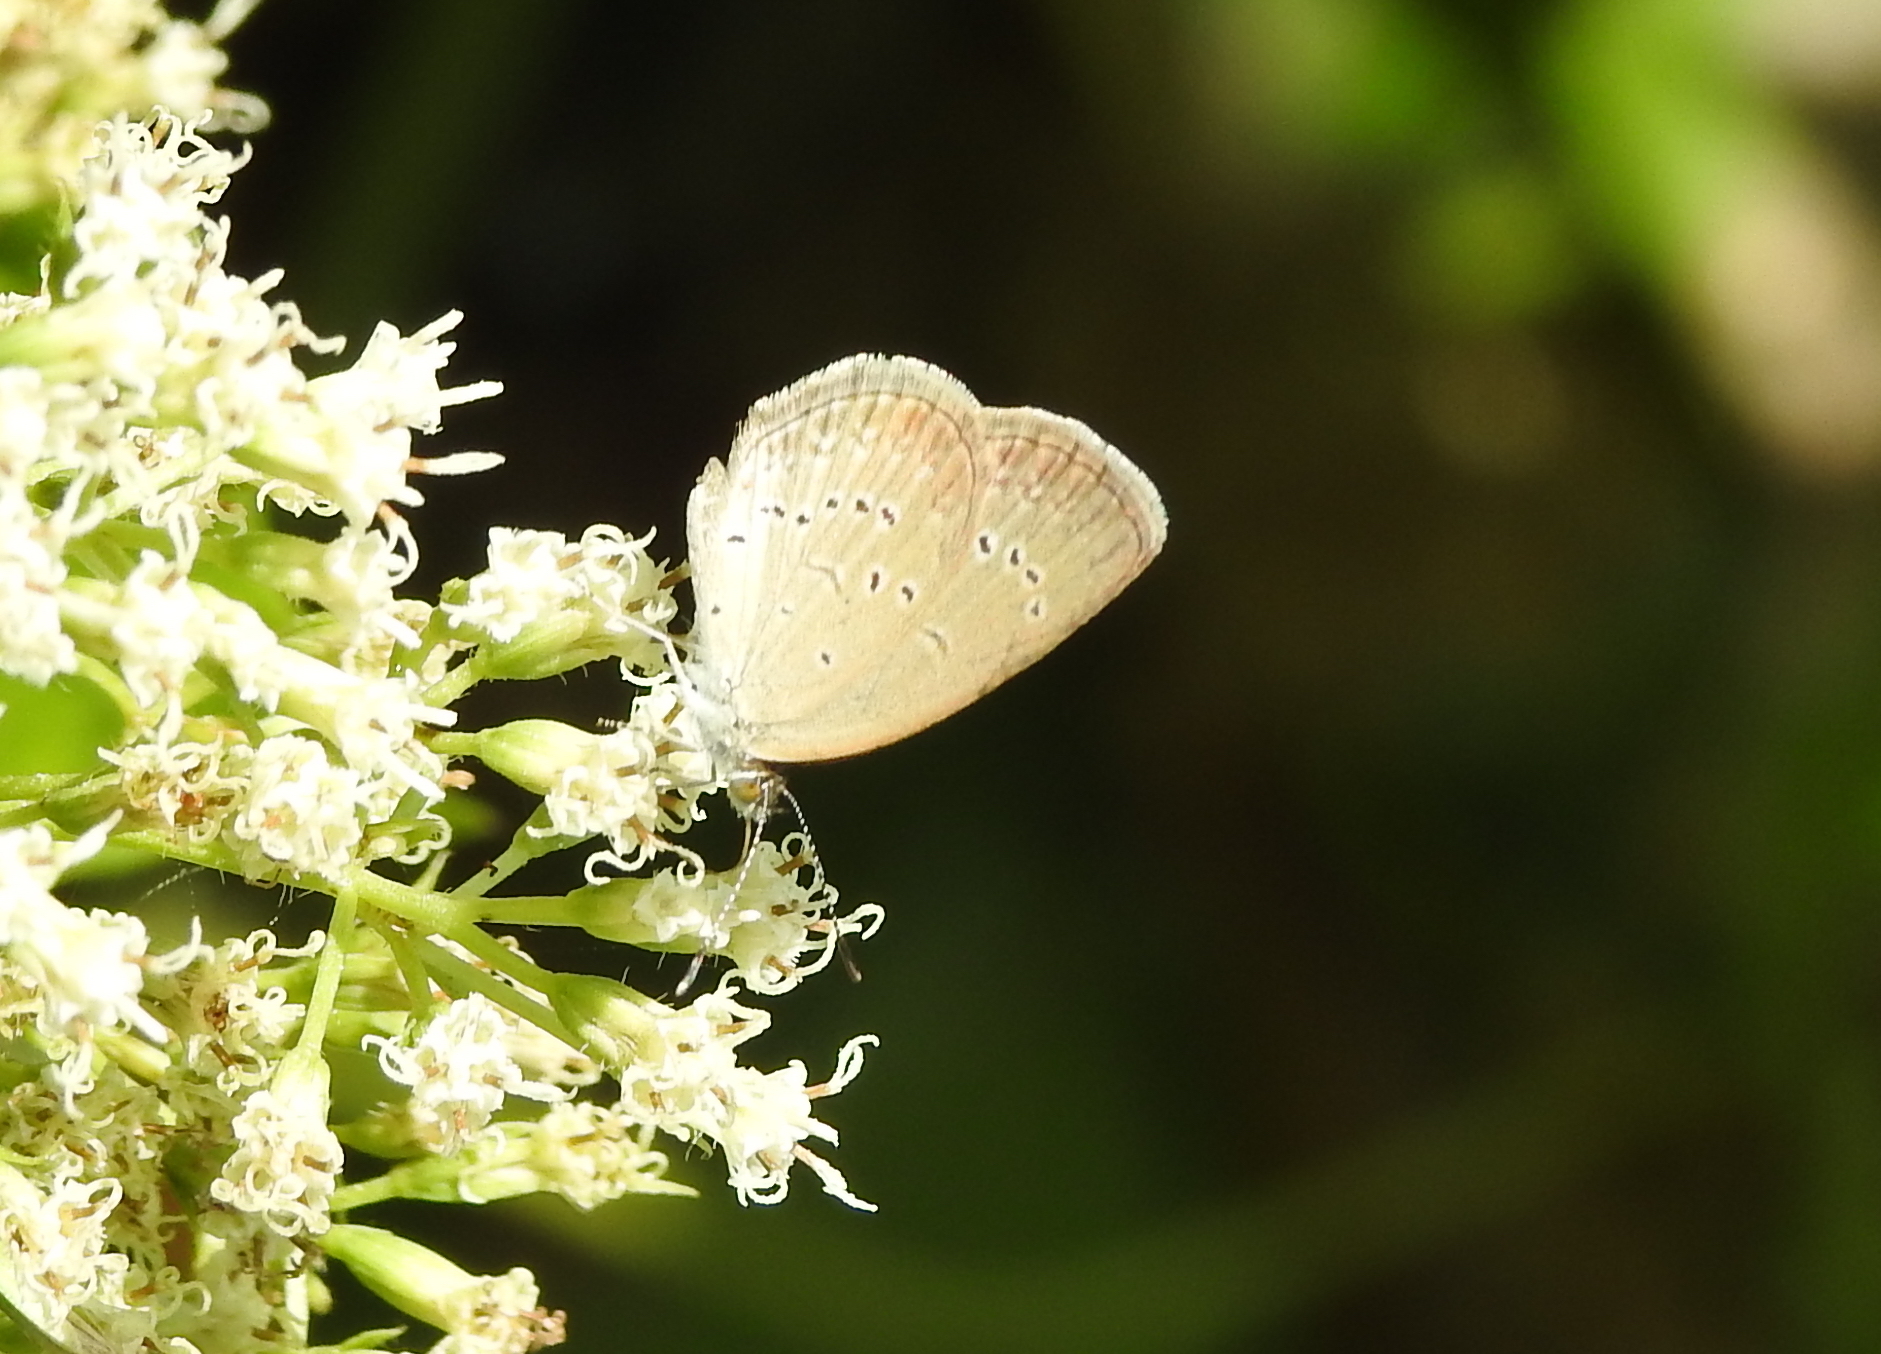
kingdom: Animalia
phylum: Arthropoda
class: Insecta
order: Lepidoptera
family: Lycaenidae
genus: Zizina
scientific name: Zizina otis
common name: Lesser grass blue
